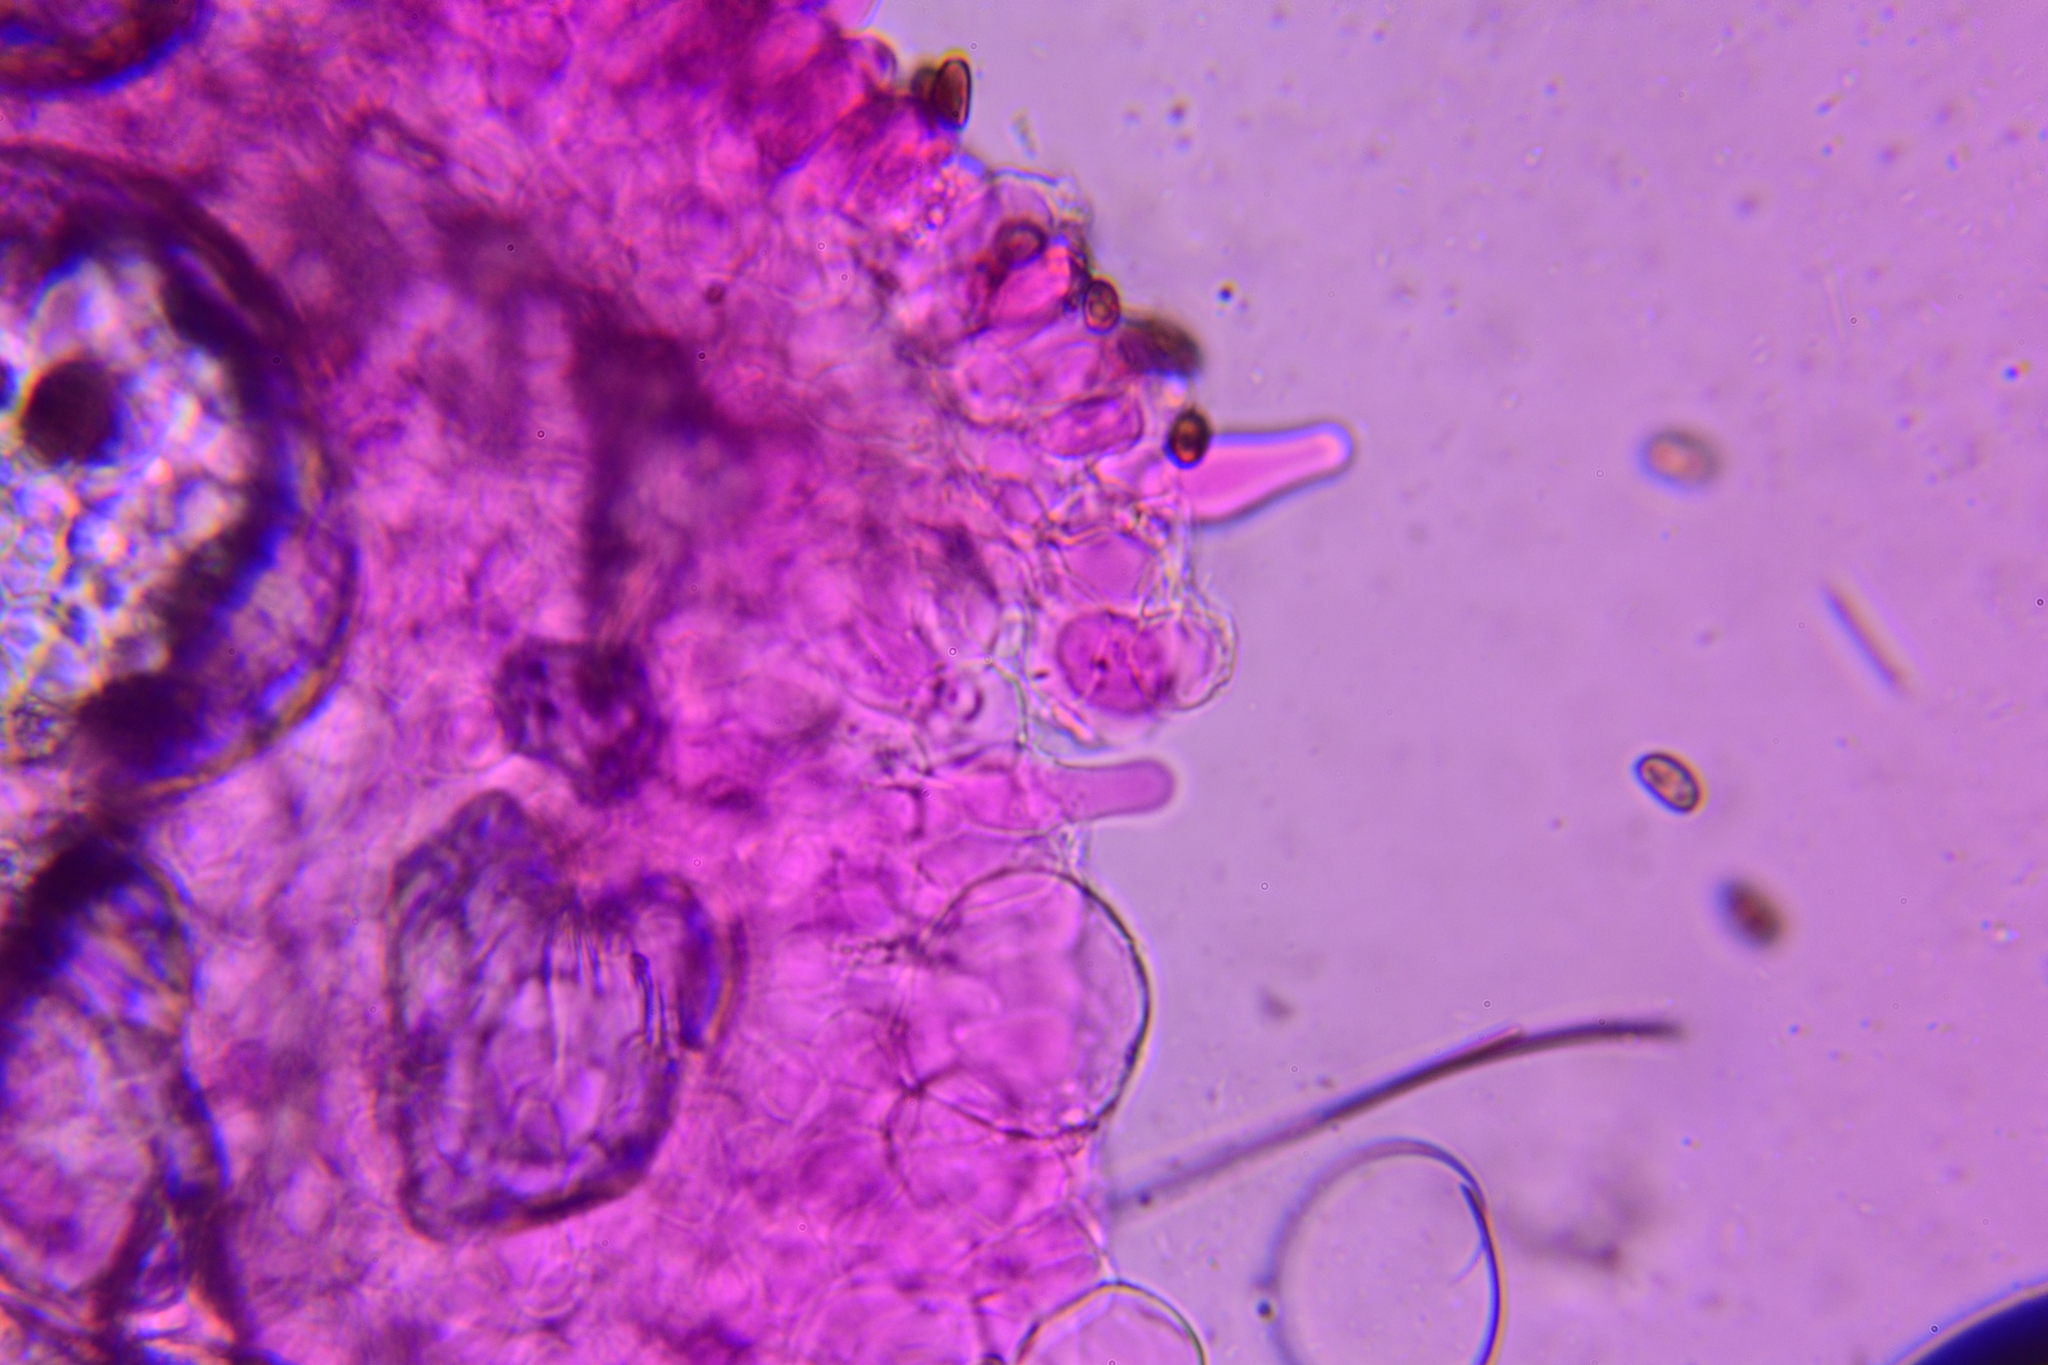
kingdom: Fungi
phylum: Basidiomycota
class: Agaricomycetes
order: Agaricales
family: Psathyrellaceae
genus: Psathyrella
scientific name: Psathyrella incerta
